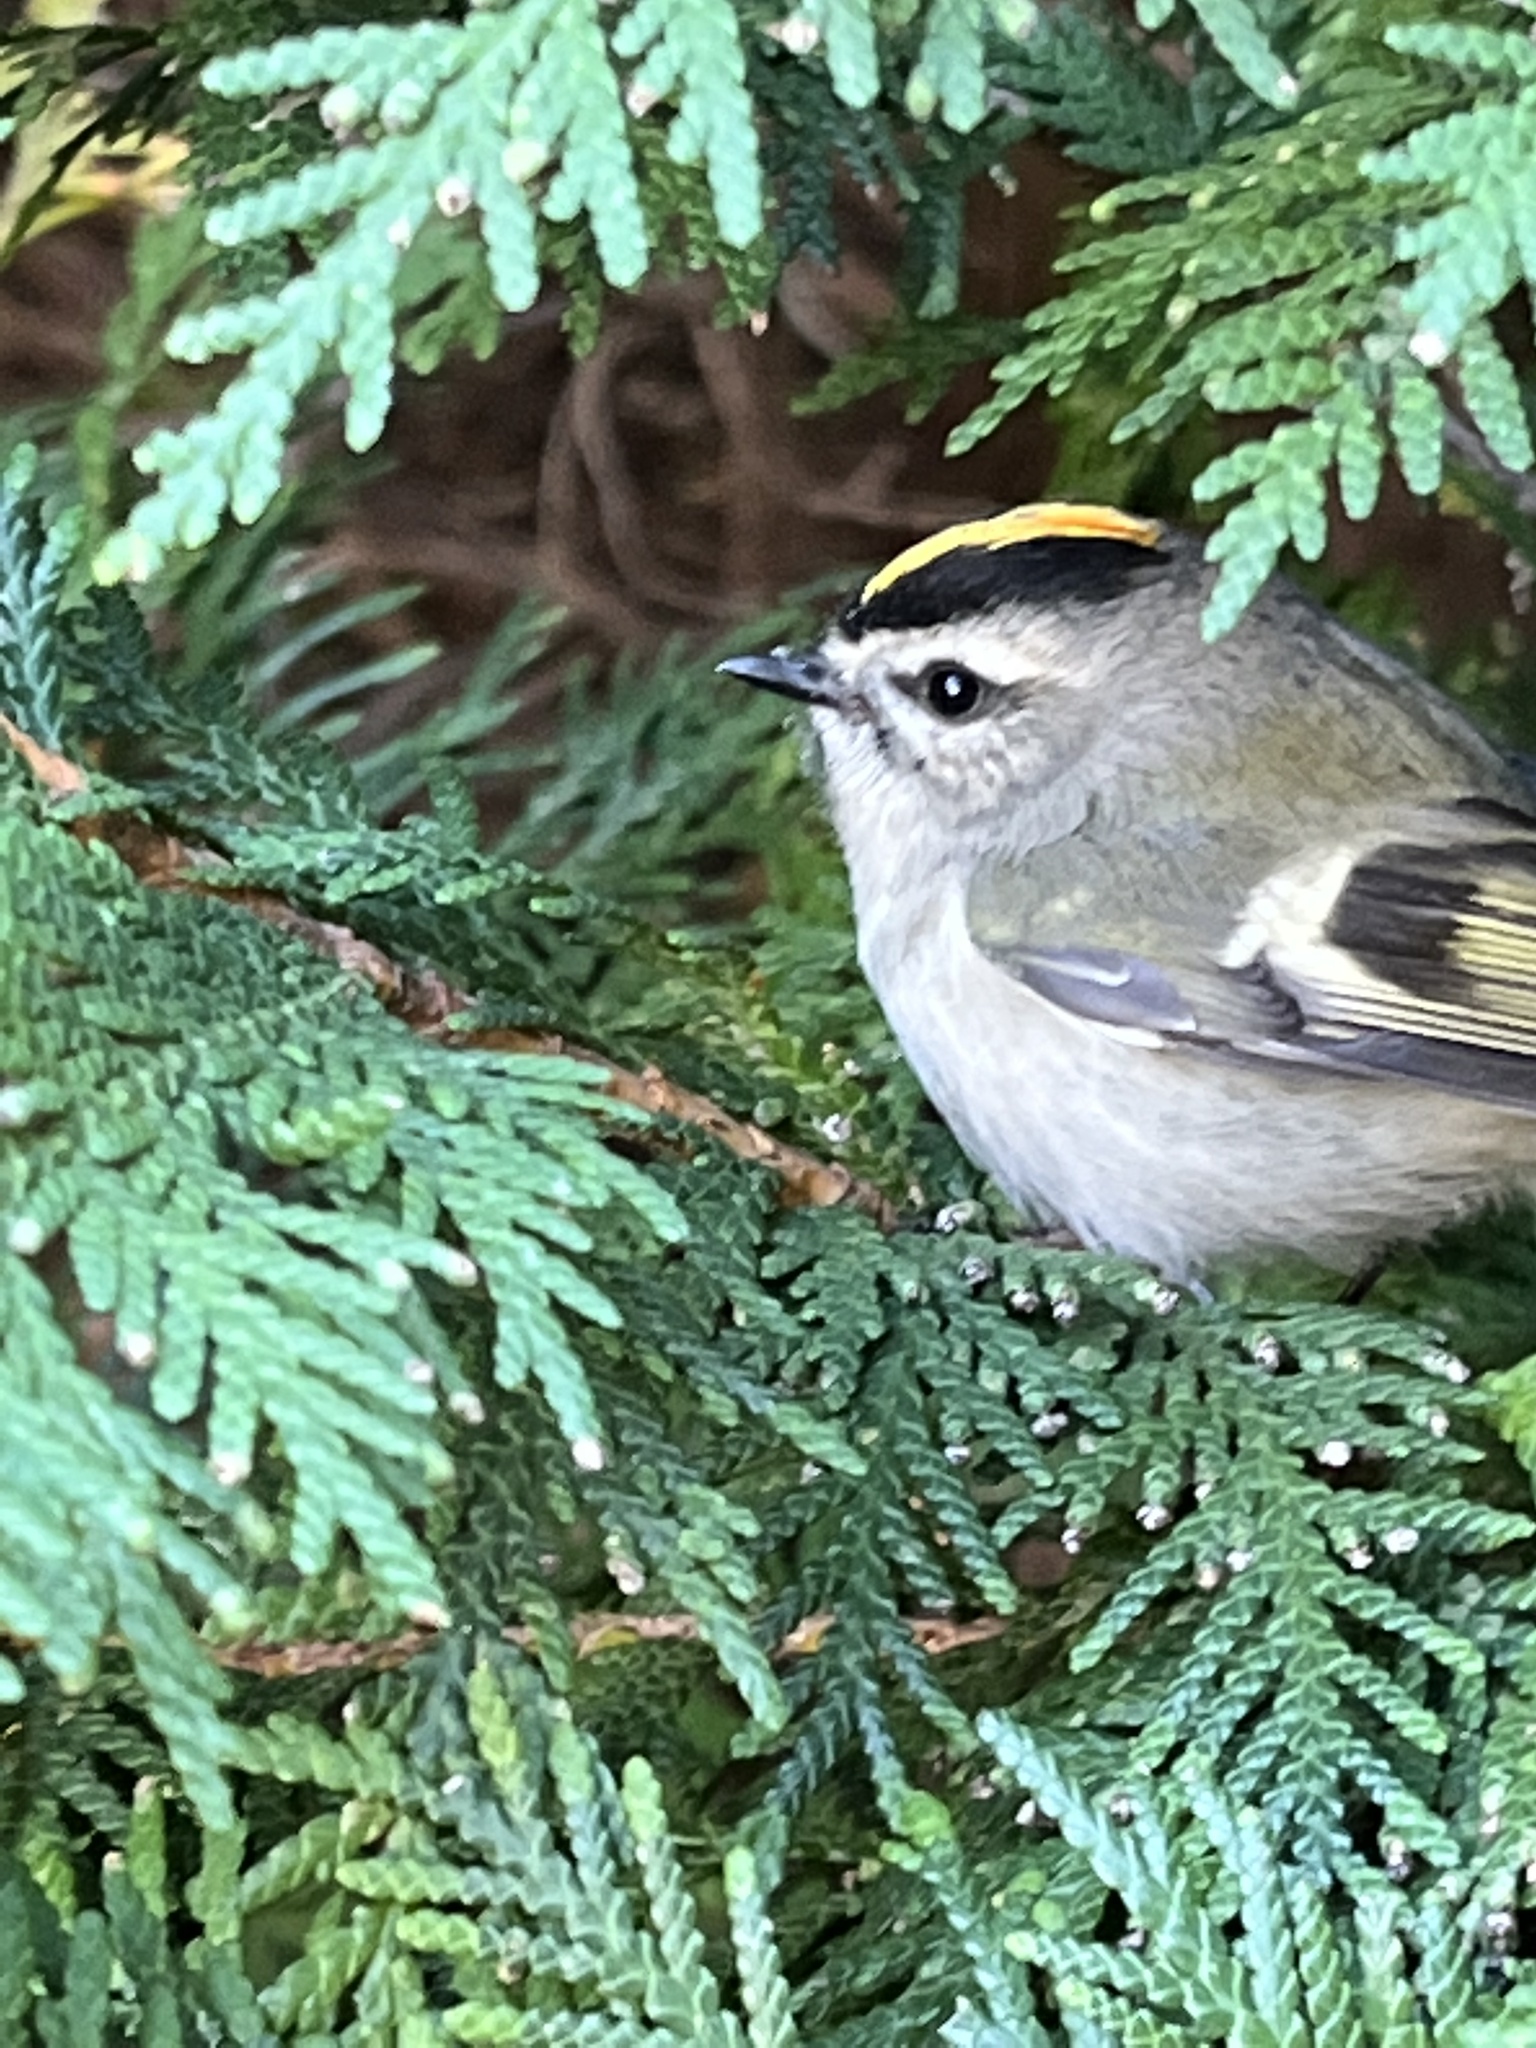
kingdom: Animalia
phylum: Chordata
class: Aves
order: Passeriformes
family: Regulidae
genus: Regulus
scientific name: Regulus satrapa
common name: Golden-crowned kinglet
